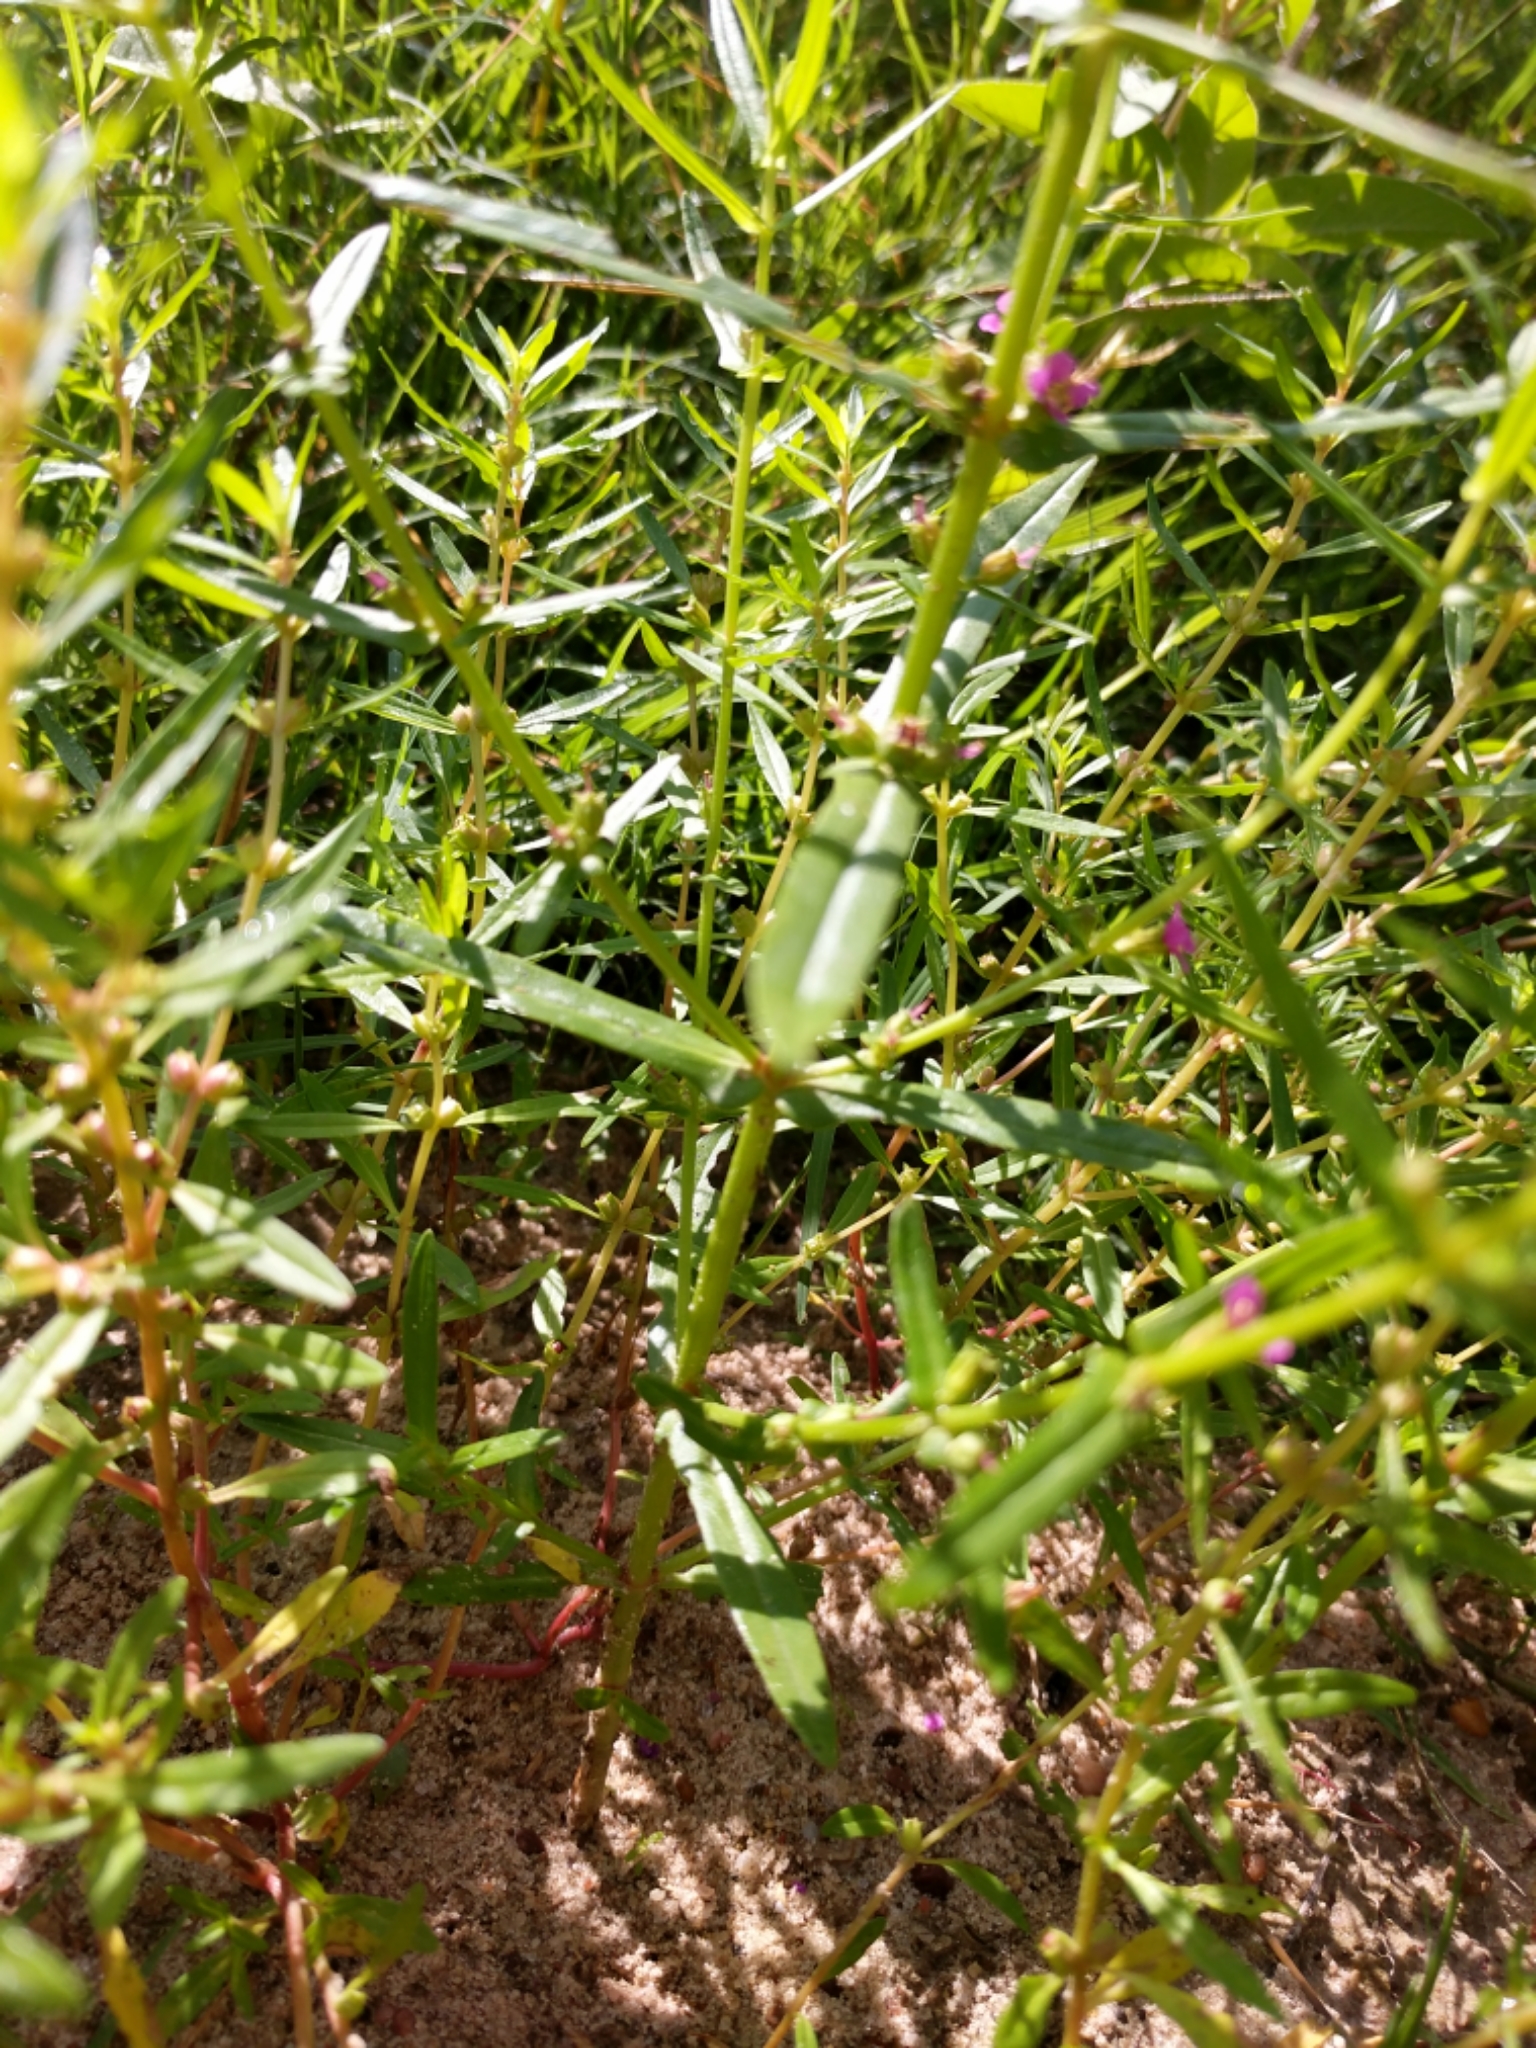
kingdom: Plantae
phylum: Tracheophyta
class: Magnoliopsida
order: Myrtales
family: Lythraceae
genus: Ammannia
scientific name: Ammannia coccinea
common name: Valley redstem
